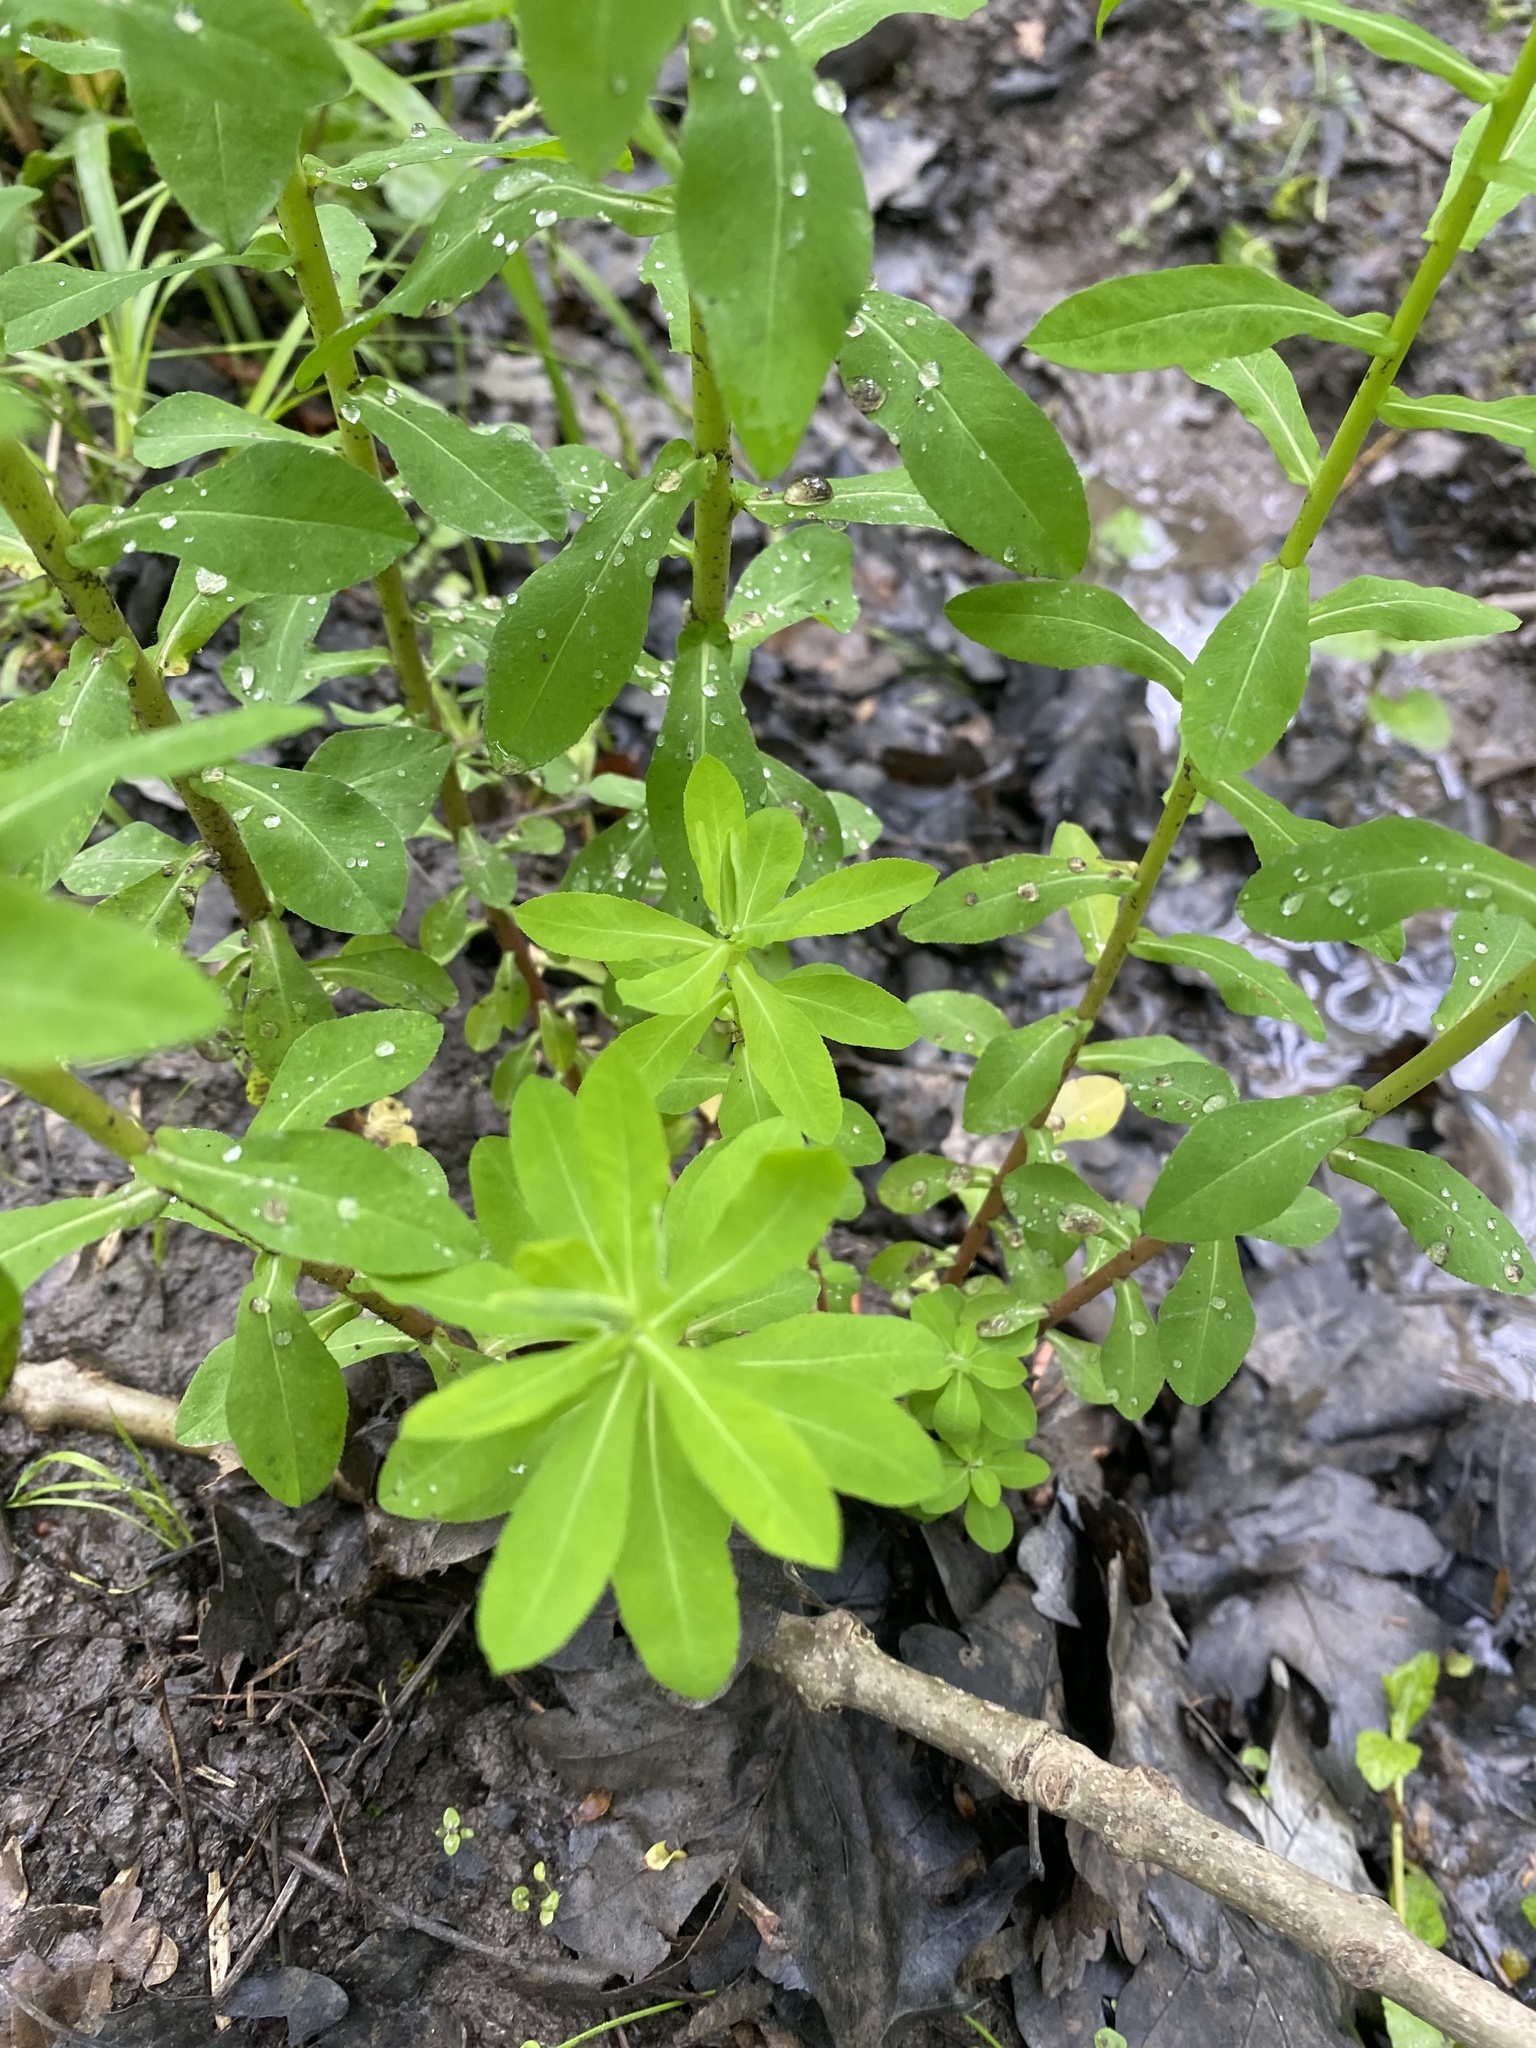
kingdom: Plantae
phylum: Tracheophyta
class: Magnoliopsida
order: Malpighiales
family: Euphorbiaceae
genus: Euphorbia
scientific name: Euphorbia stricta
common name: Upright spurge
